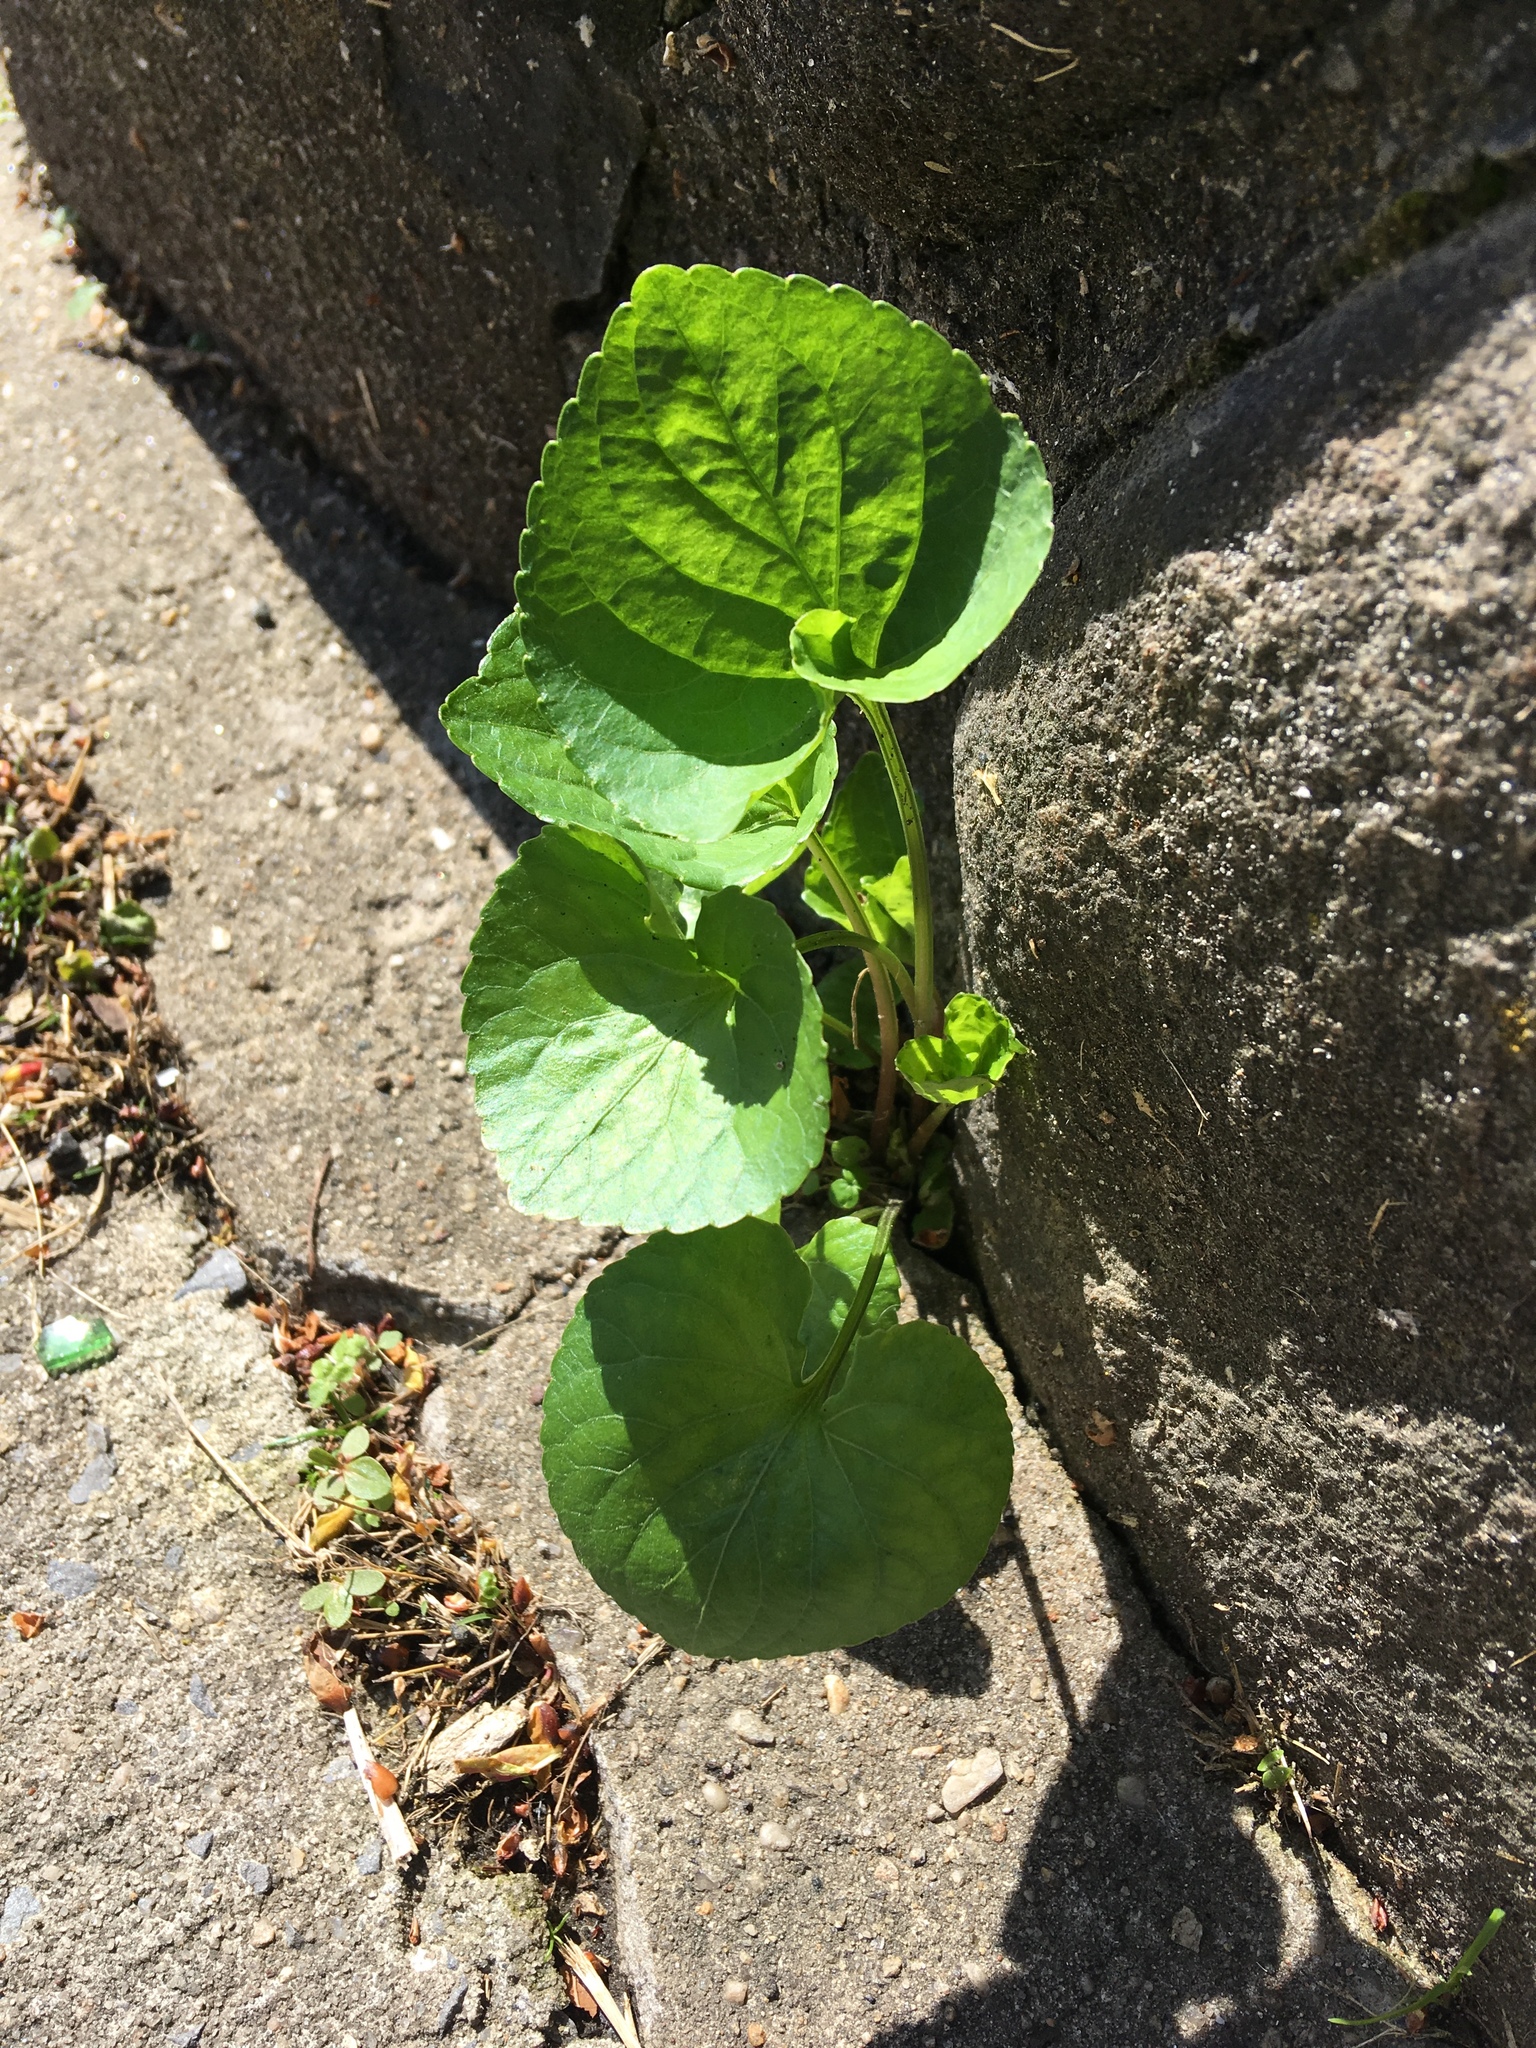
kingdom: Plantae
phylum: Tracheophyta
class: Magnoliopsida
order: Malpighiales
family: Violaceae
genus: Viola
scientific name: Viola sororia
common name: Dooryard violet
